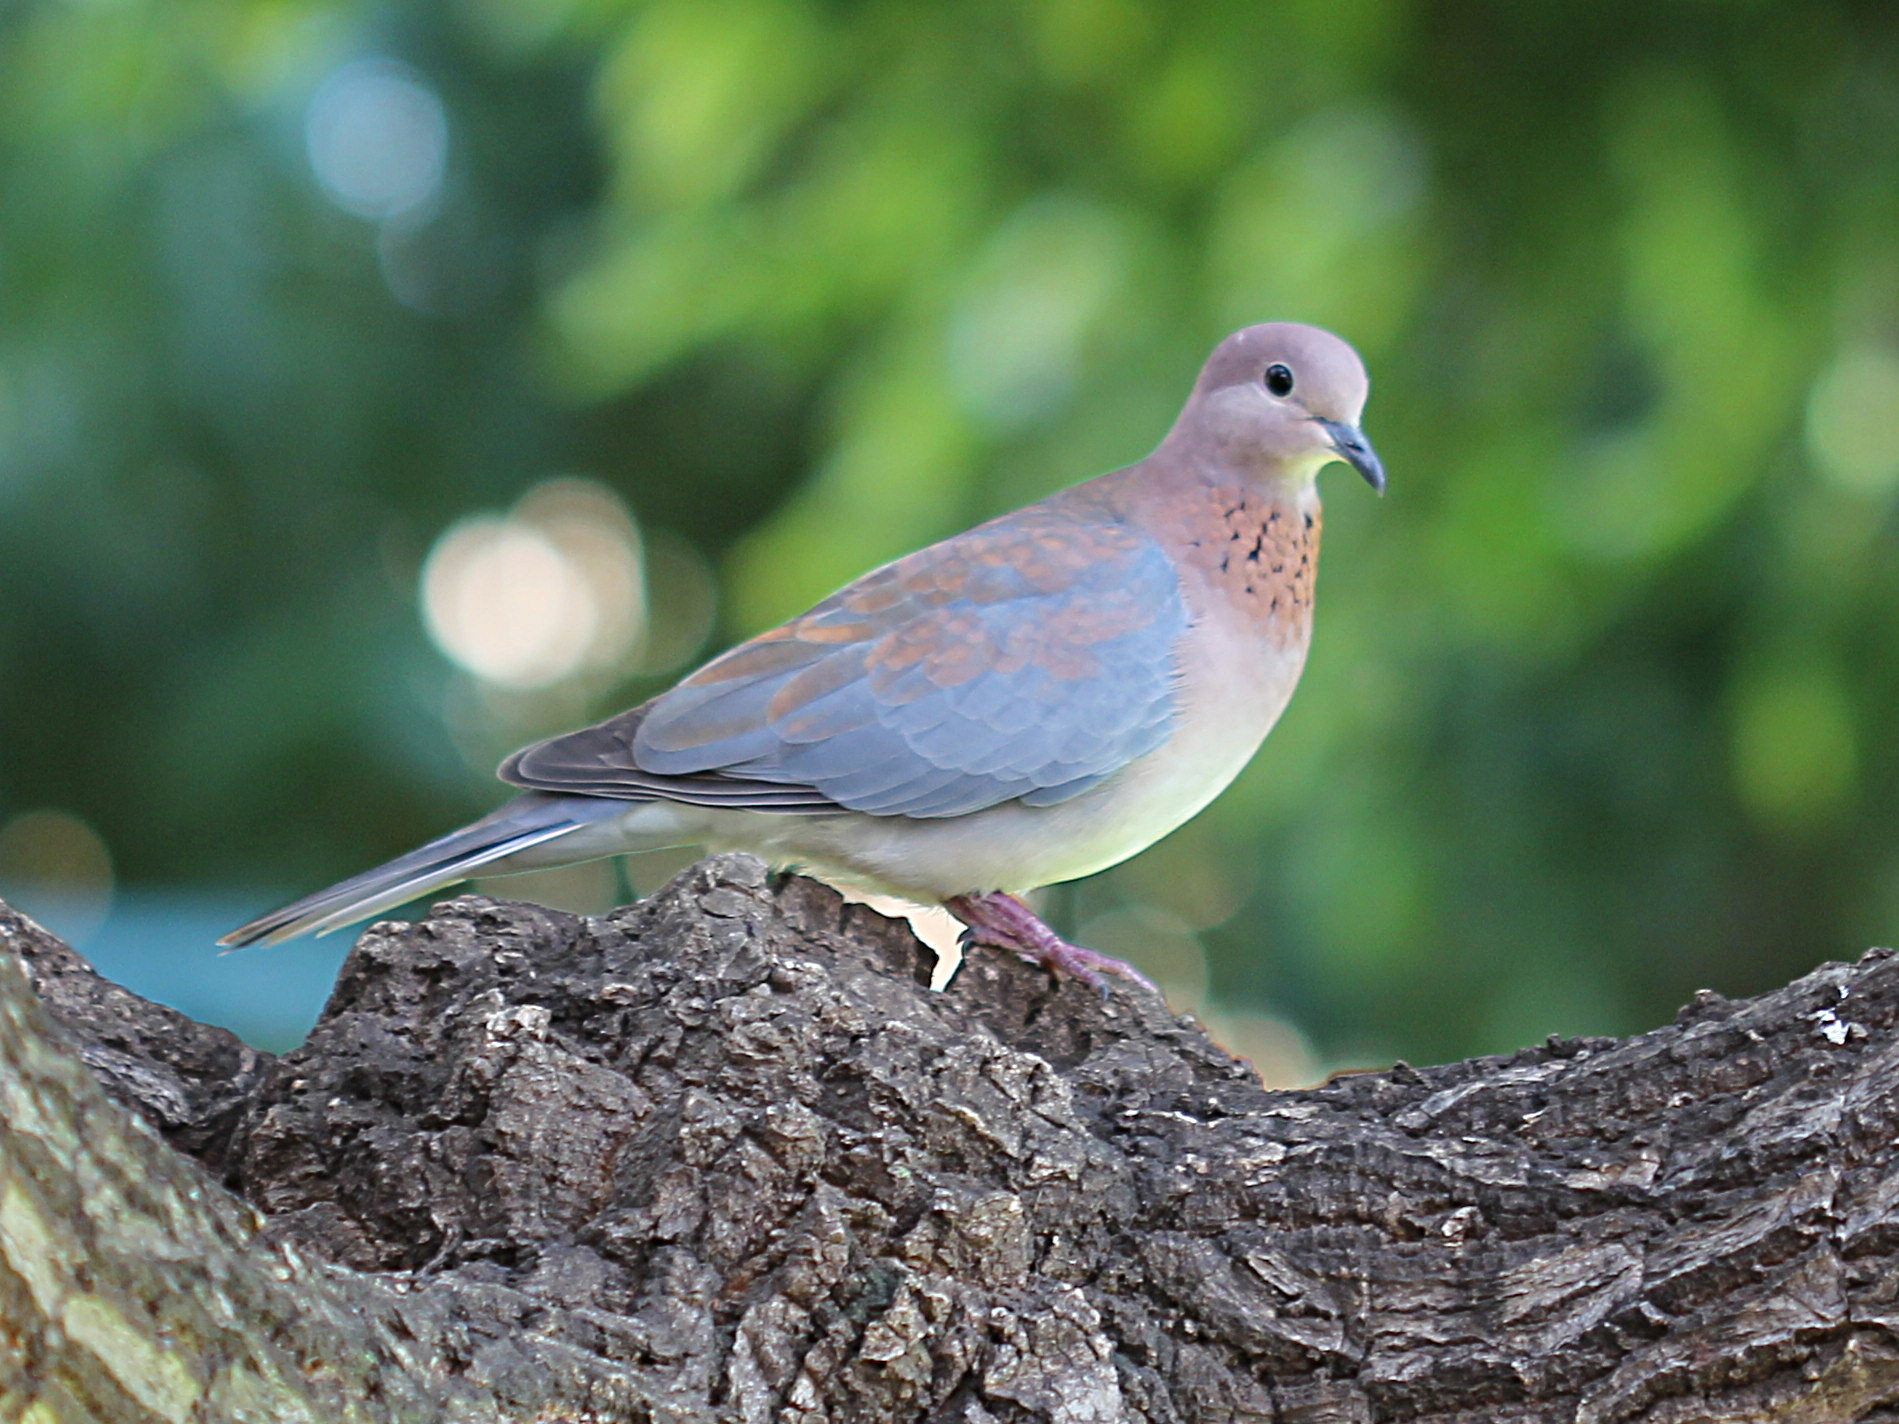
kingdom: Animalia
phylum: Chordata
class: Aves
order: Columbiformes
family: Columbidae
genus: Spilopelia
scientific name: Spilopelia senegalensis
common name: Laughing dove
